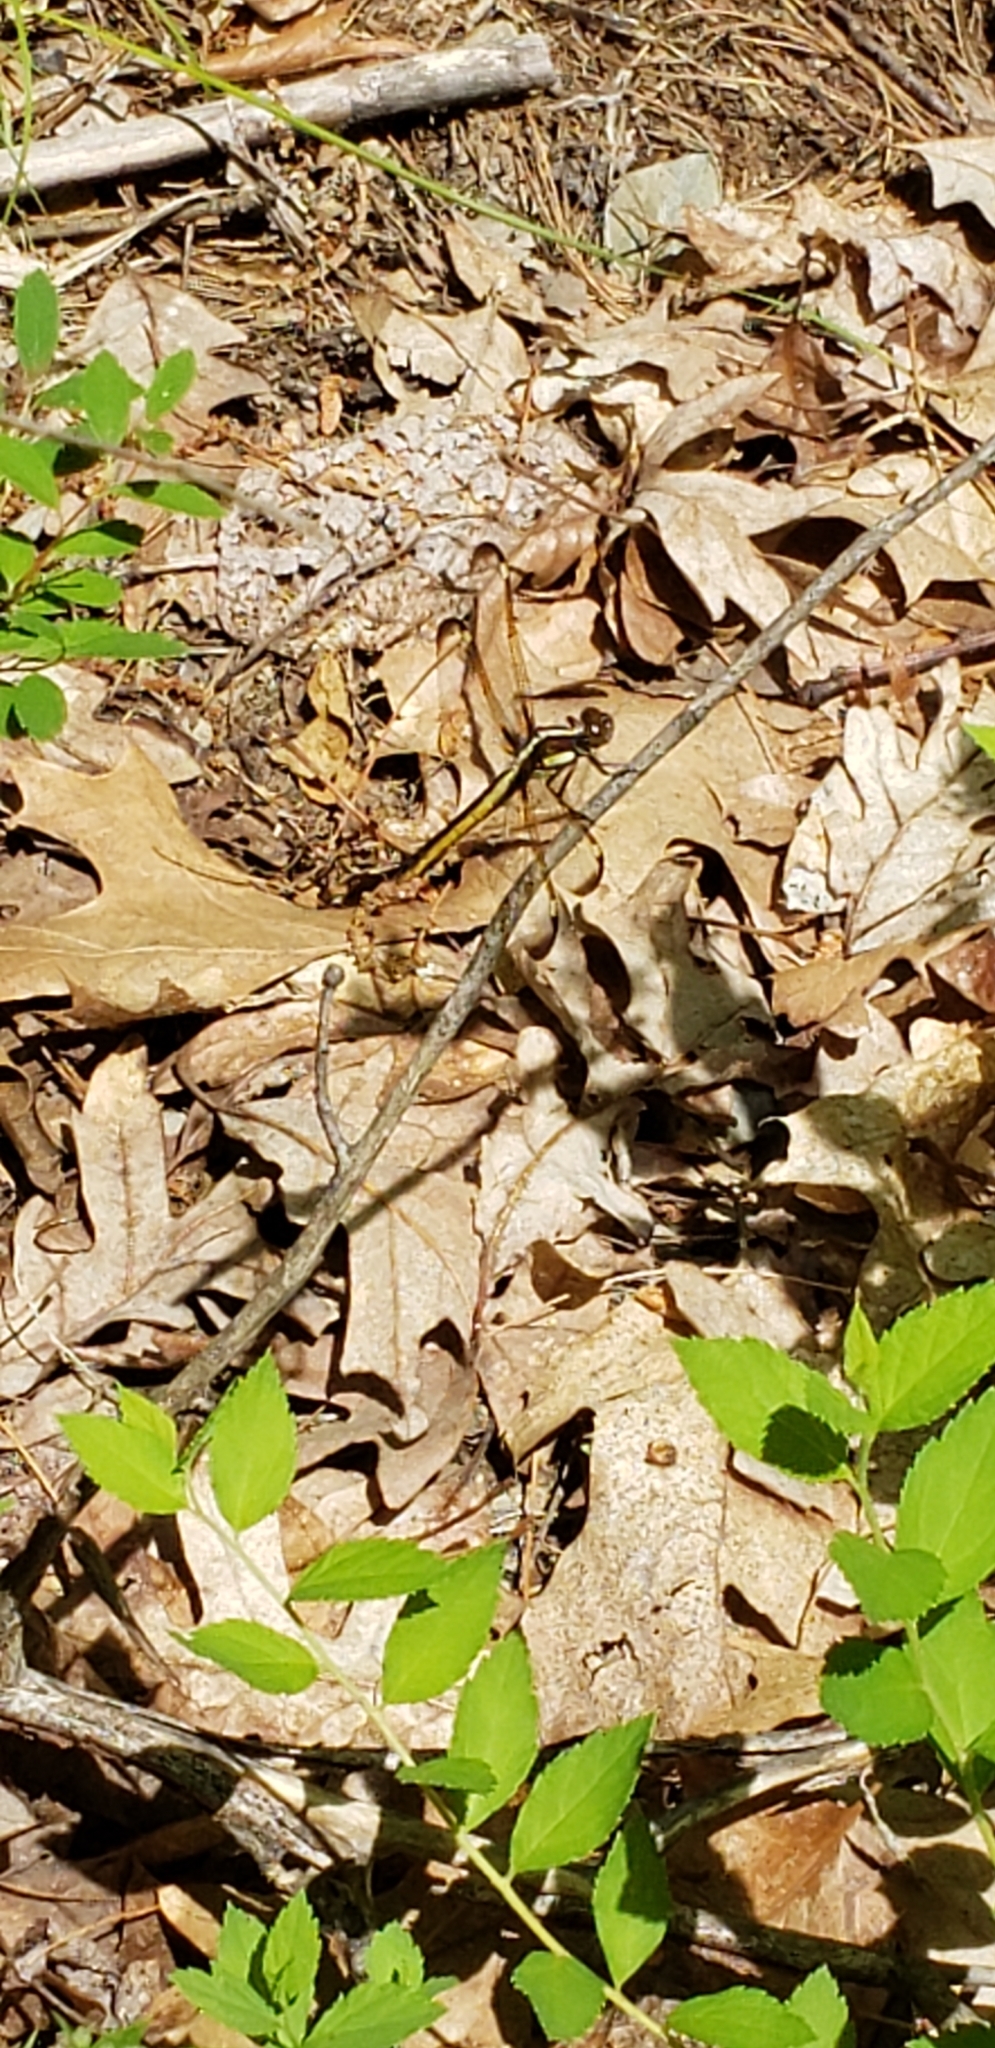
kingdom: Animalia
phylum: Arthropoda
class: Insecta
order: Odonata
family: Libellulidae
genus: Libellula
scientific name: Libellula cyanea
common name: Spangled skimmer
